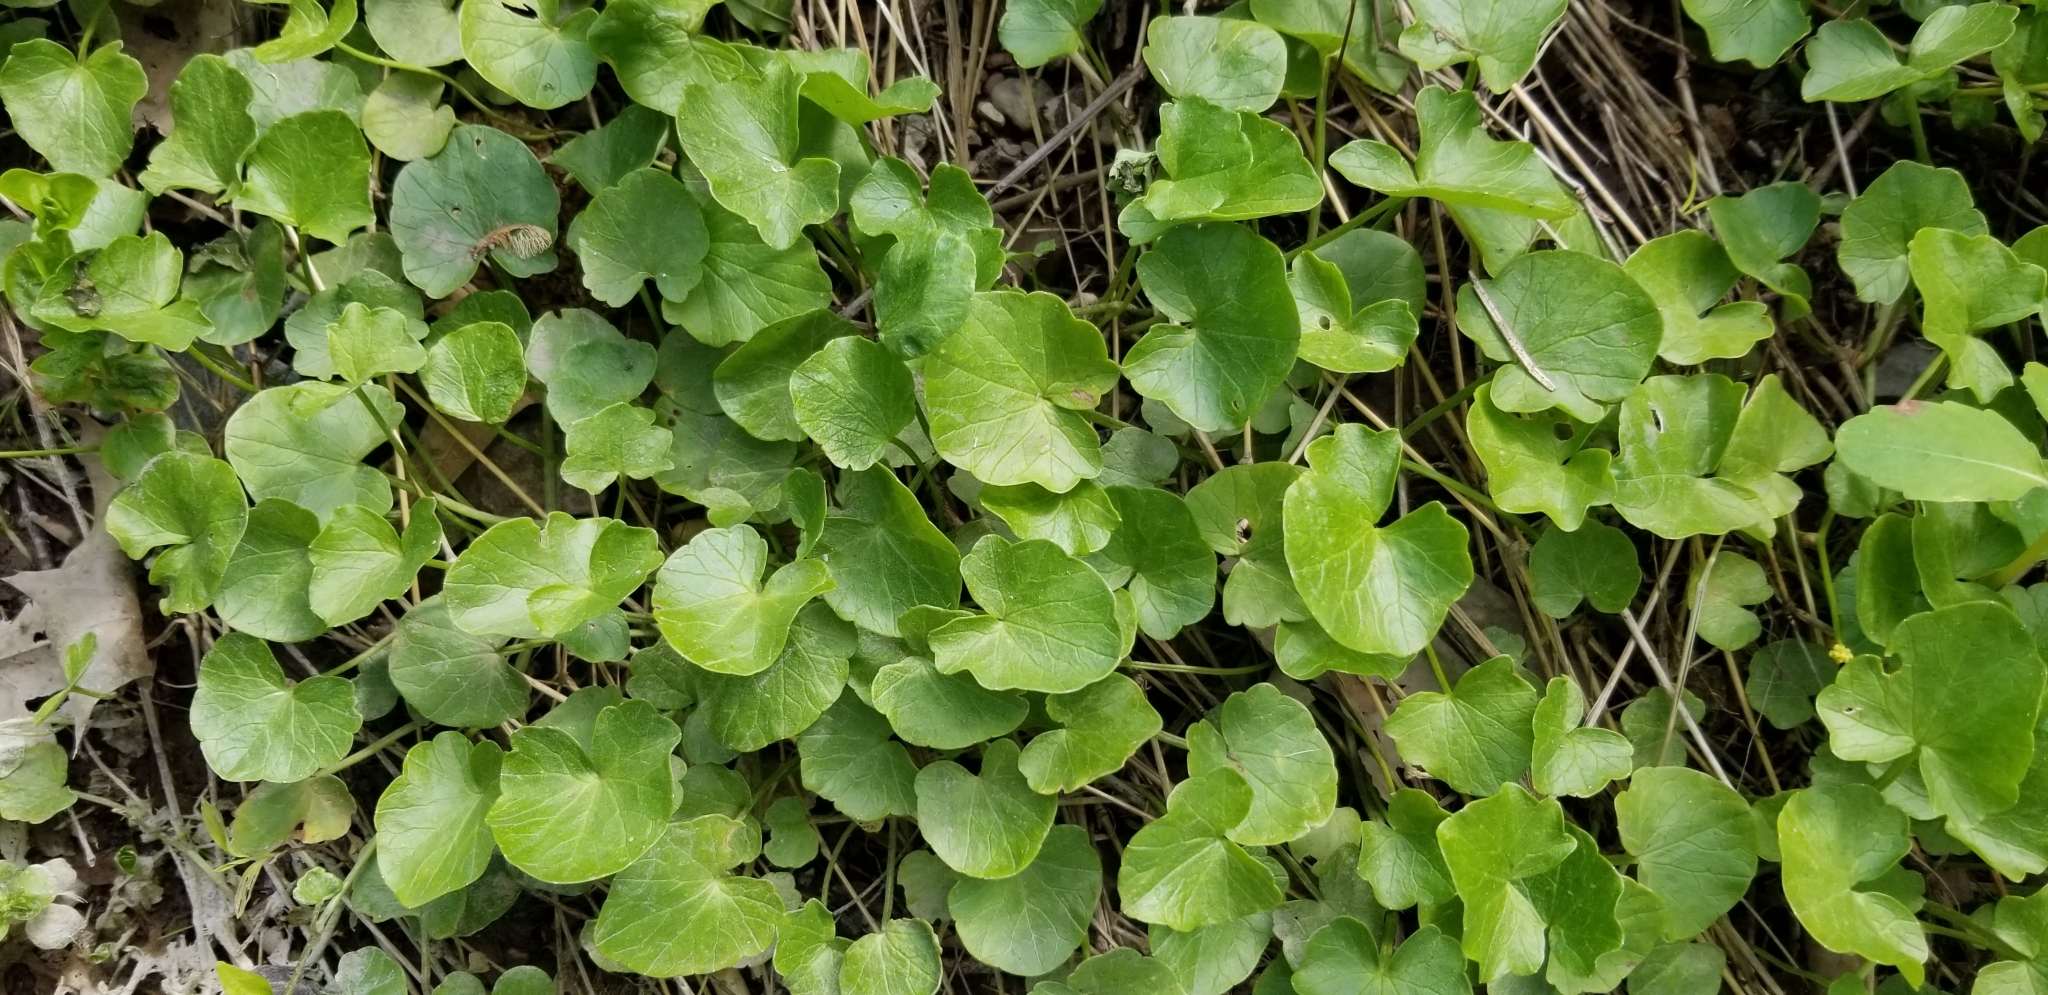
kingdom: Plantae
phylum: Tracheophyta
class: Magnoliopsida
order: Ranunculales
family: Ranunculaceae
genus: Ficaria
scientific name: Ficaria verna
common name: Lesser celandine
